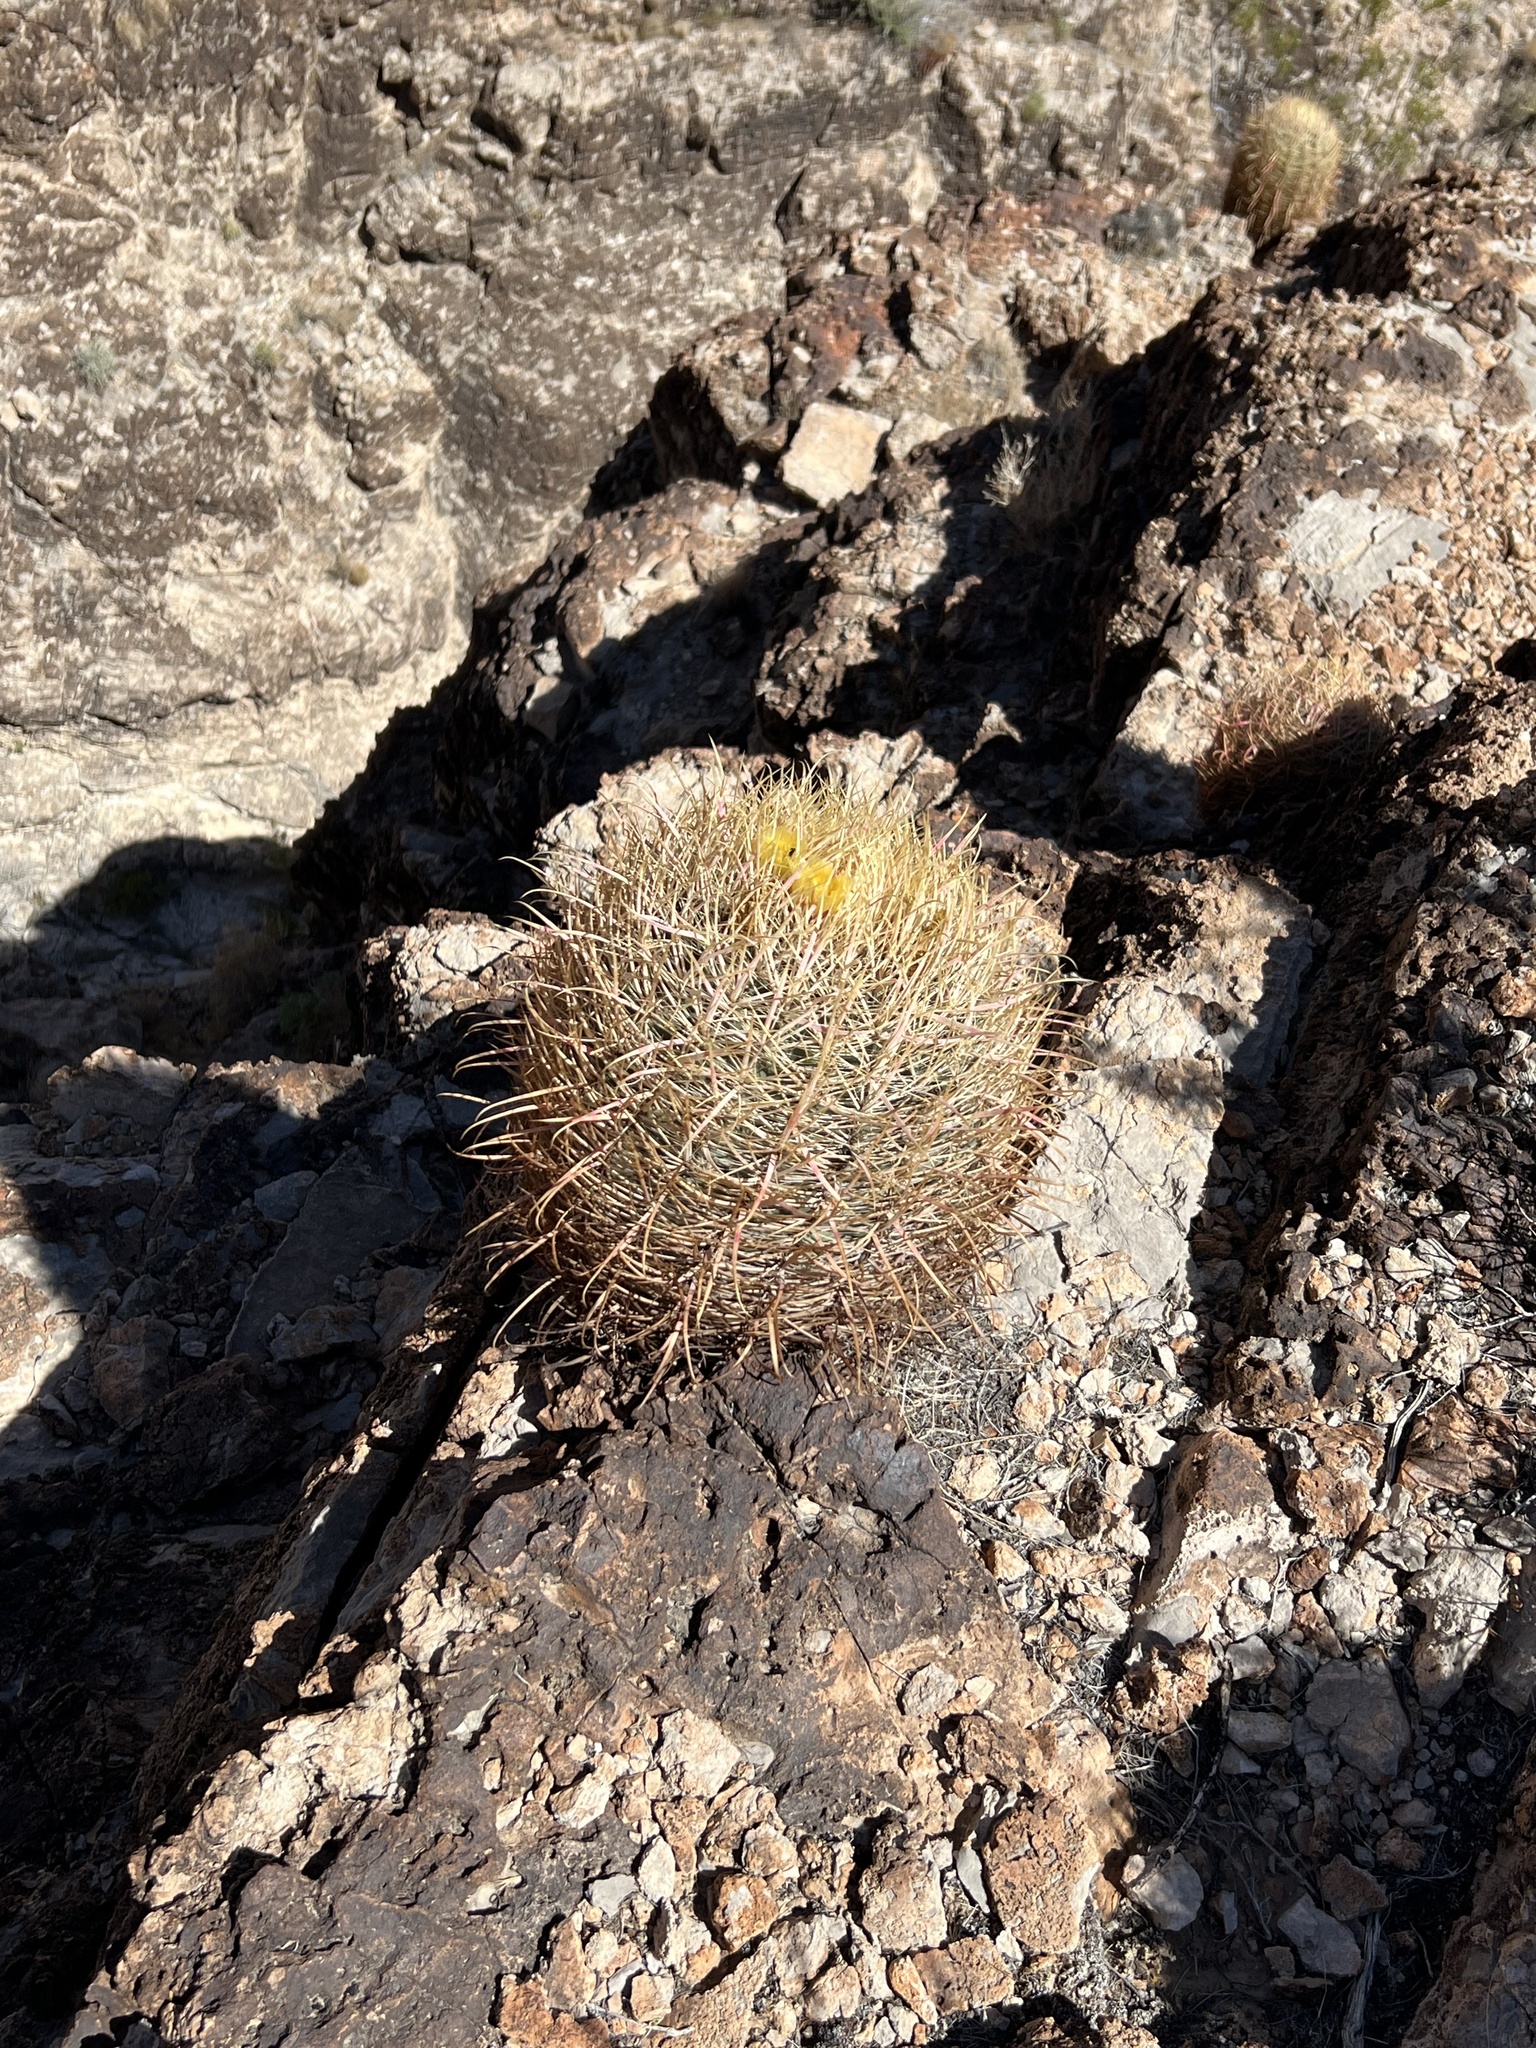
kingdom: Plantae
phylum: Tracheophyta
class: Magnoliopsida
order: Caryophyllales
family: Cactaceae
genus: Ferocactus
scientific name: Ferocactus cylindraceus
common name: California barrel cactus
